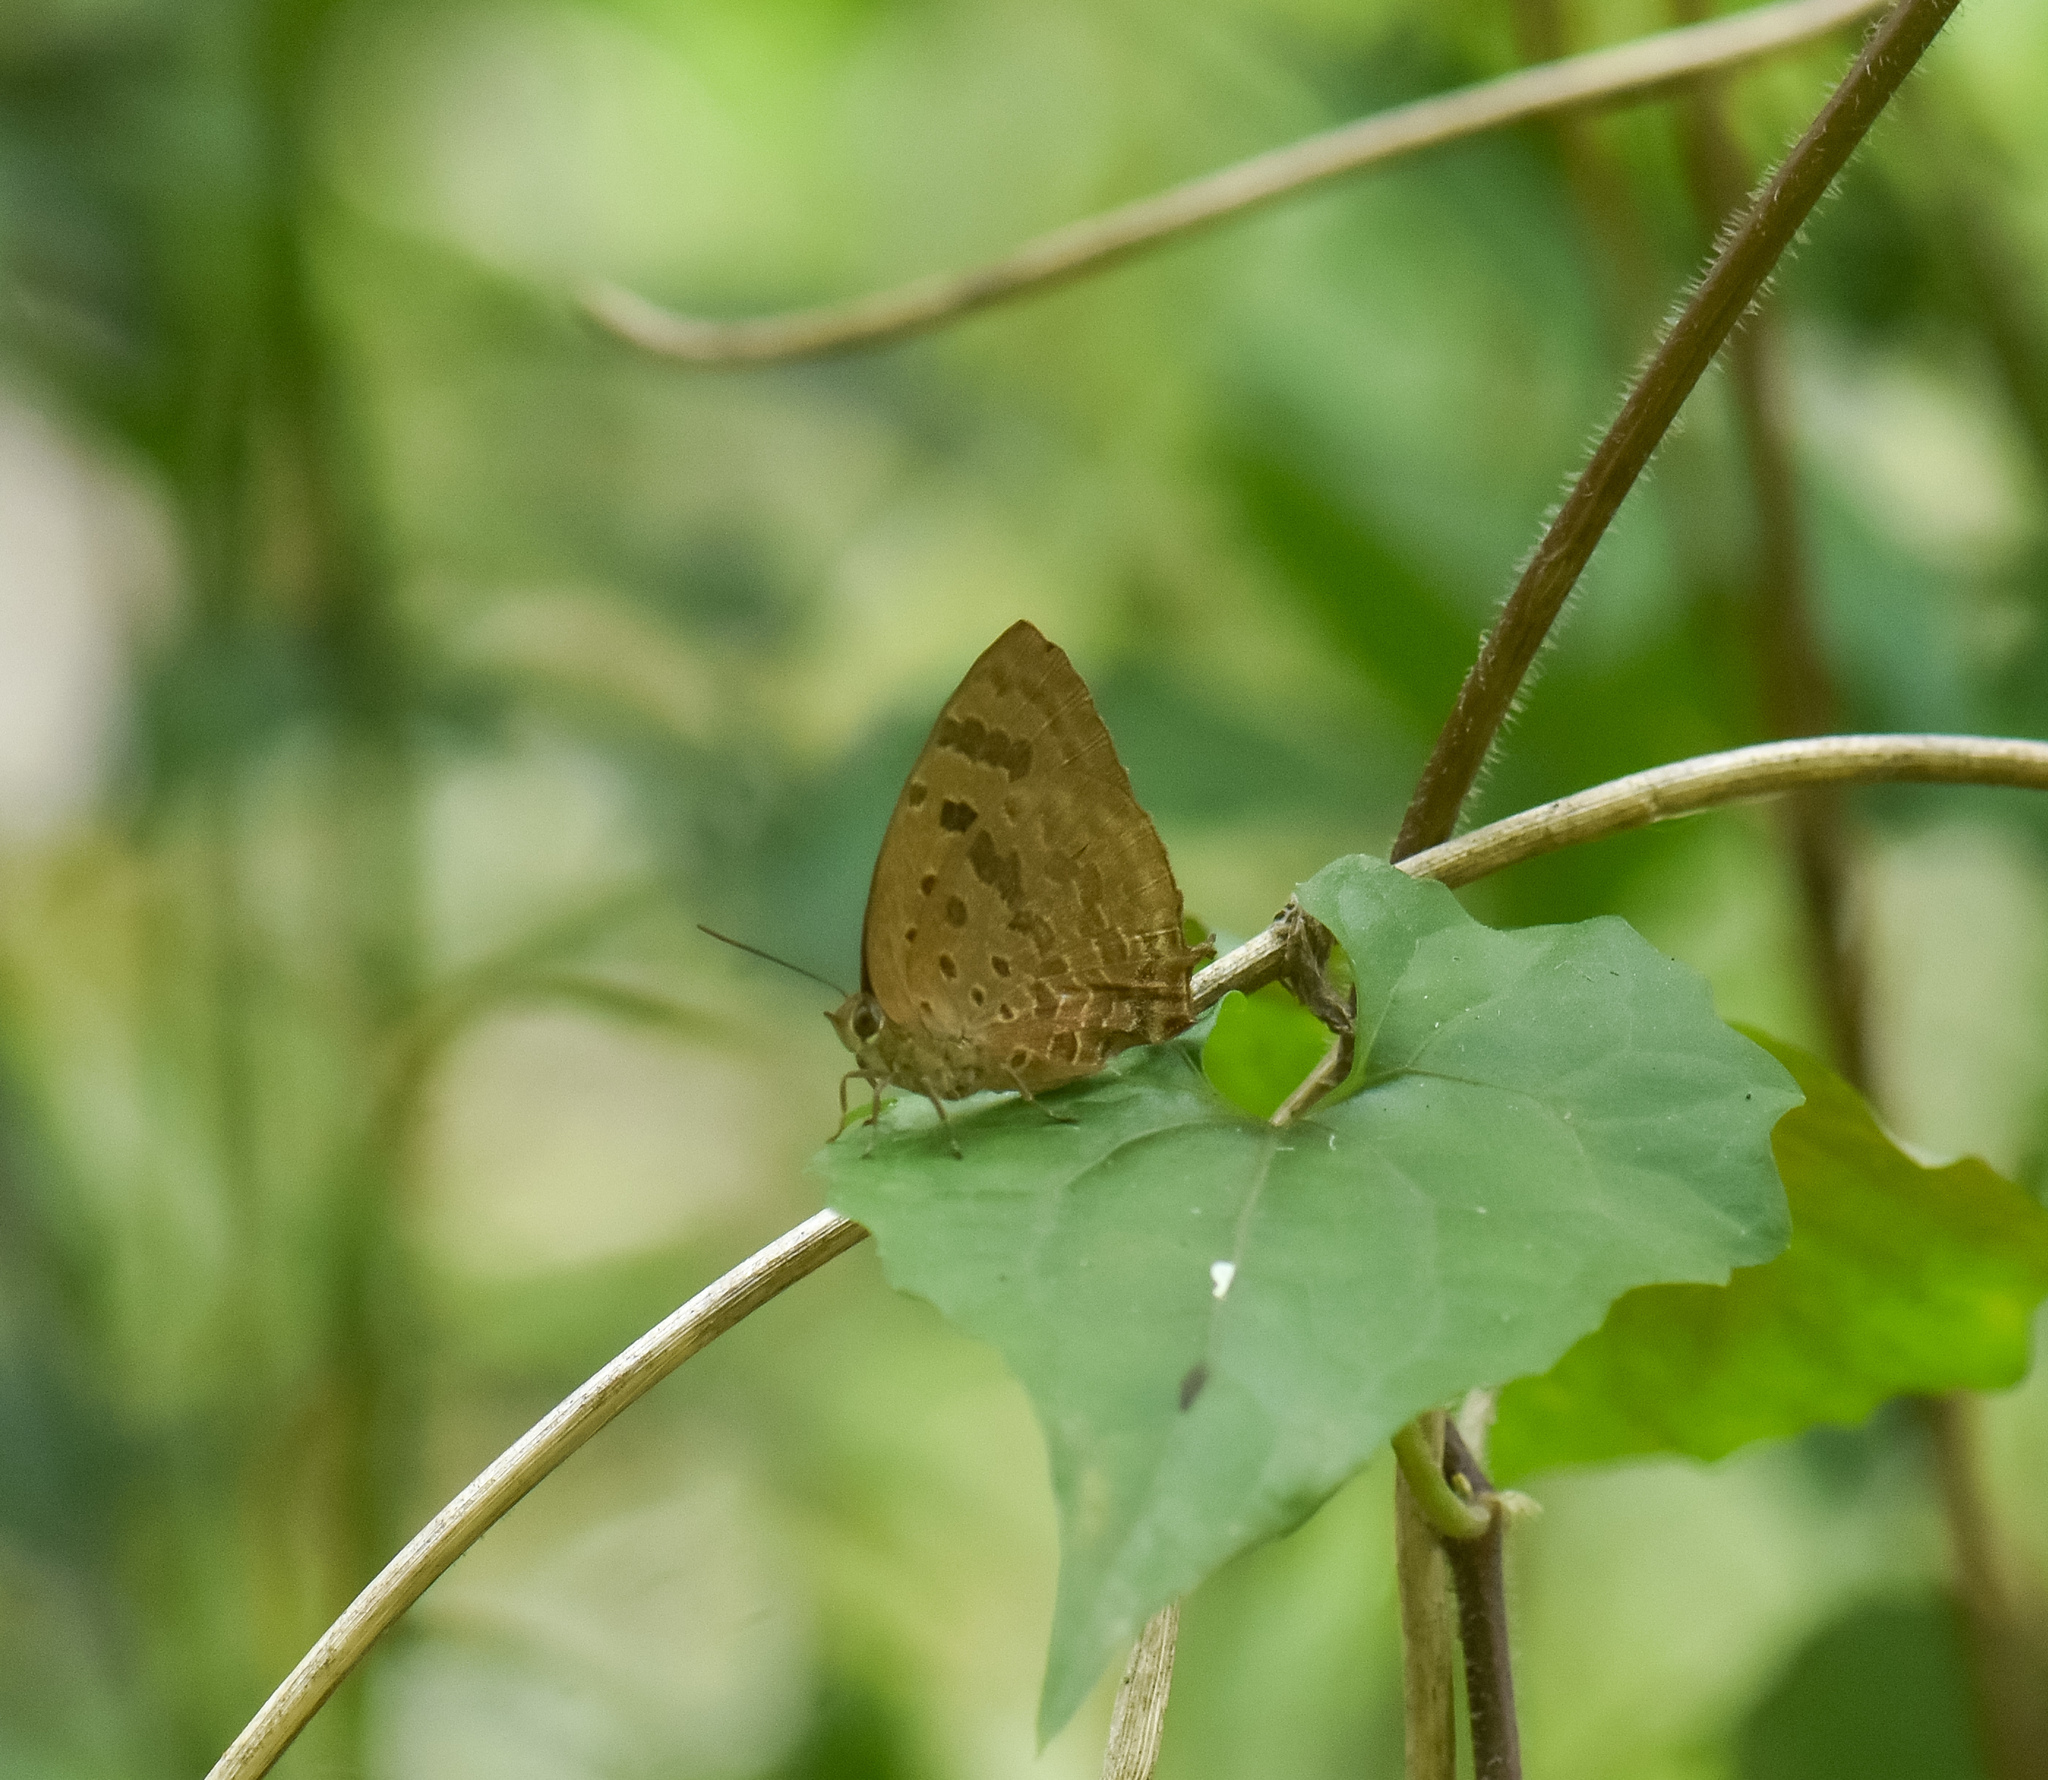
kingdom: Animalia
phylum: Arthropoda
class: Insecta
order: Lepidoptera
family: Lycaenidae
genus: Arhopala
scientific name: Arhopala
